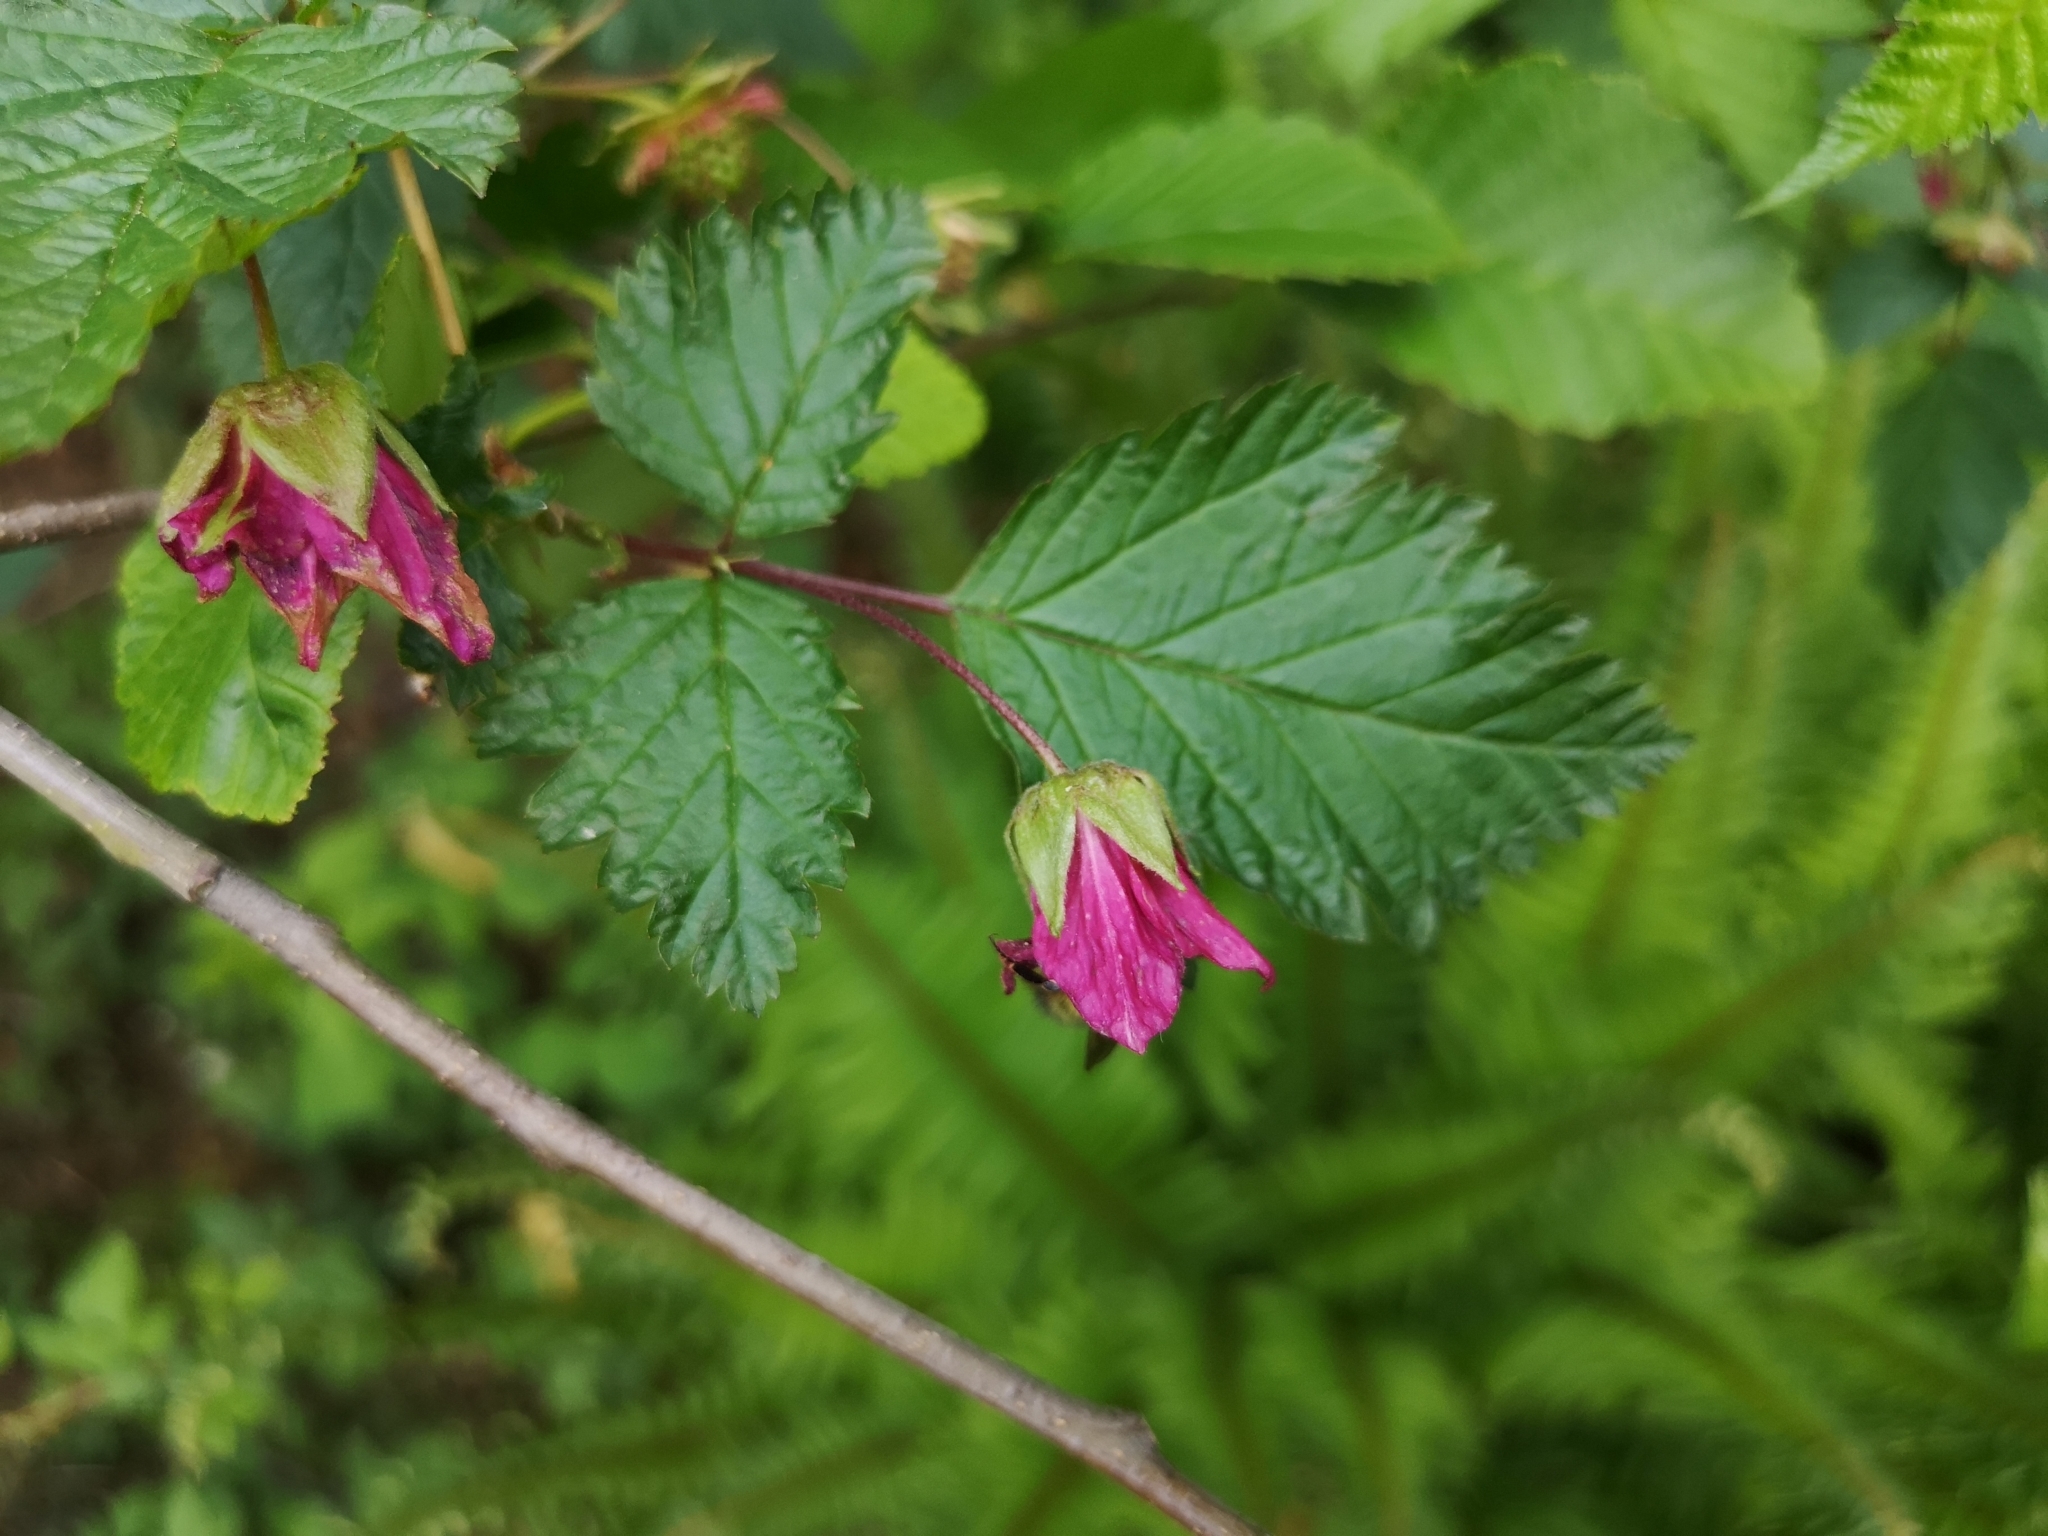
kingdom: Plantae
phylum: Tracheophyta
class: Magnoliopsida
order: Rosales
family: Rosaceae
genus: Rubus
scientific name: Rubus spectabilis
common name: Salmonberry
